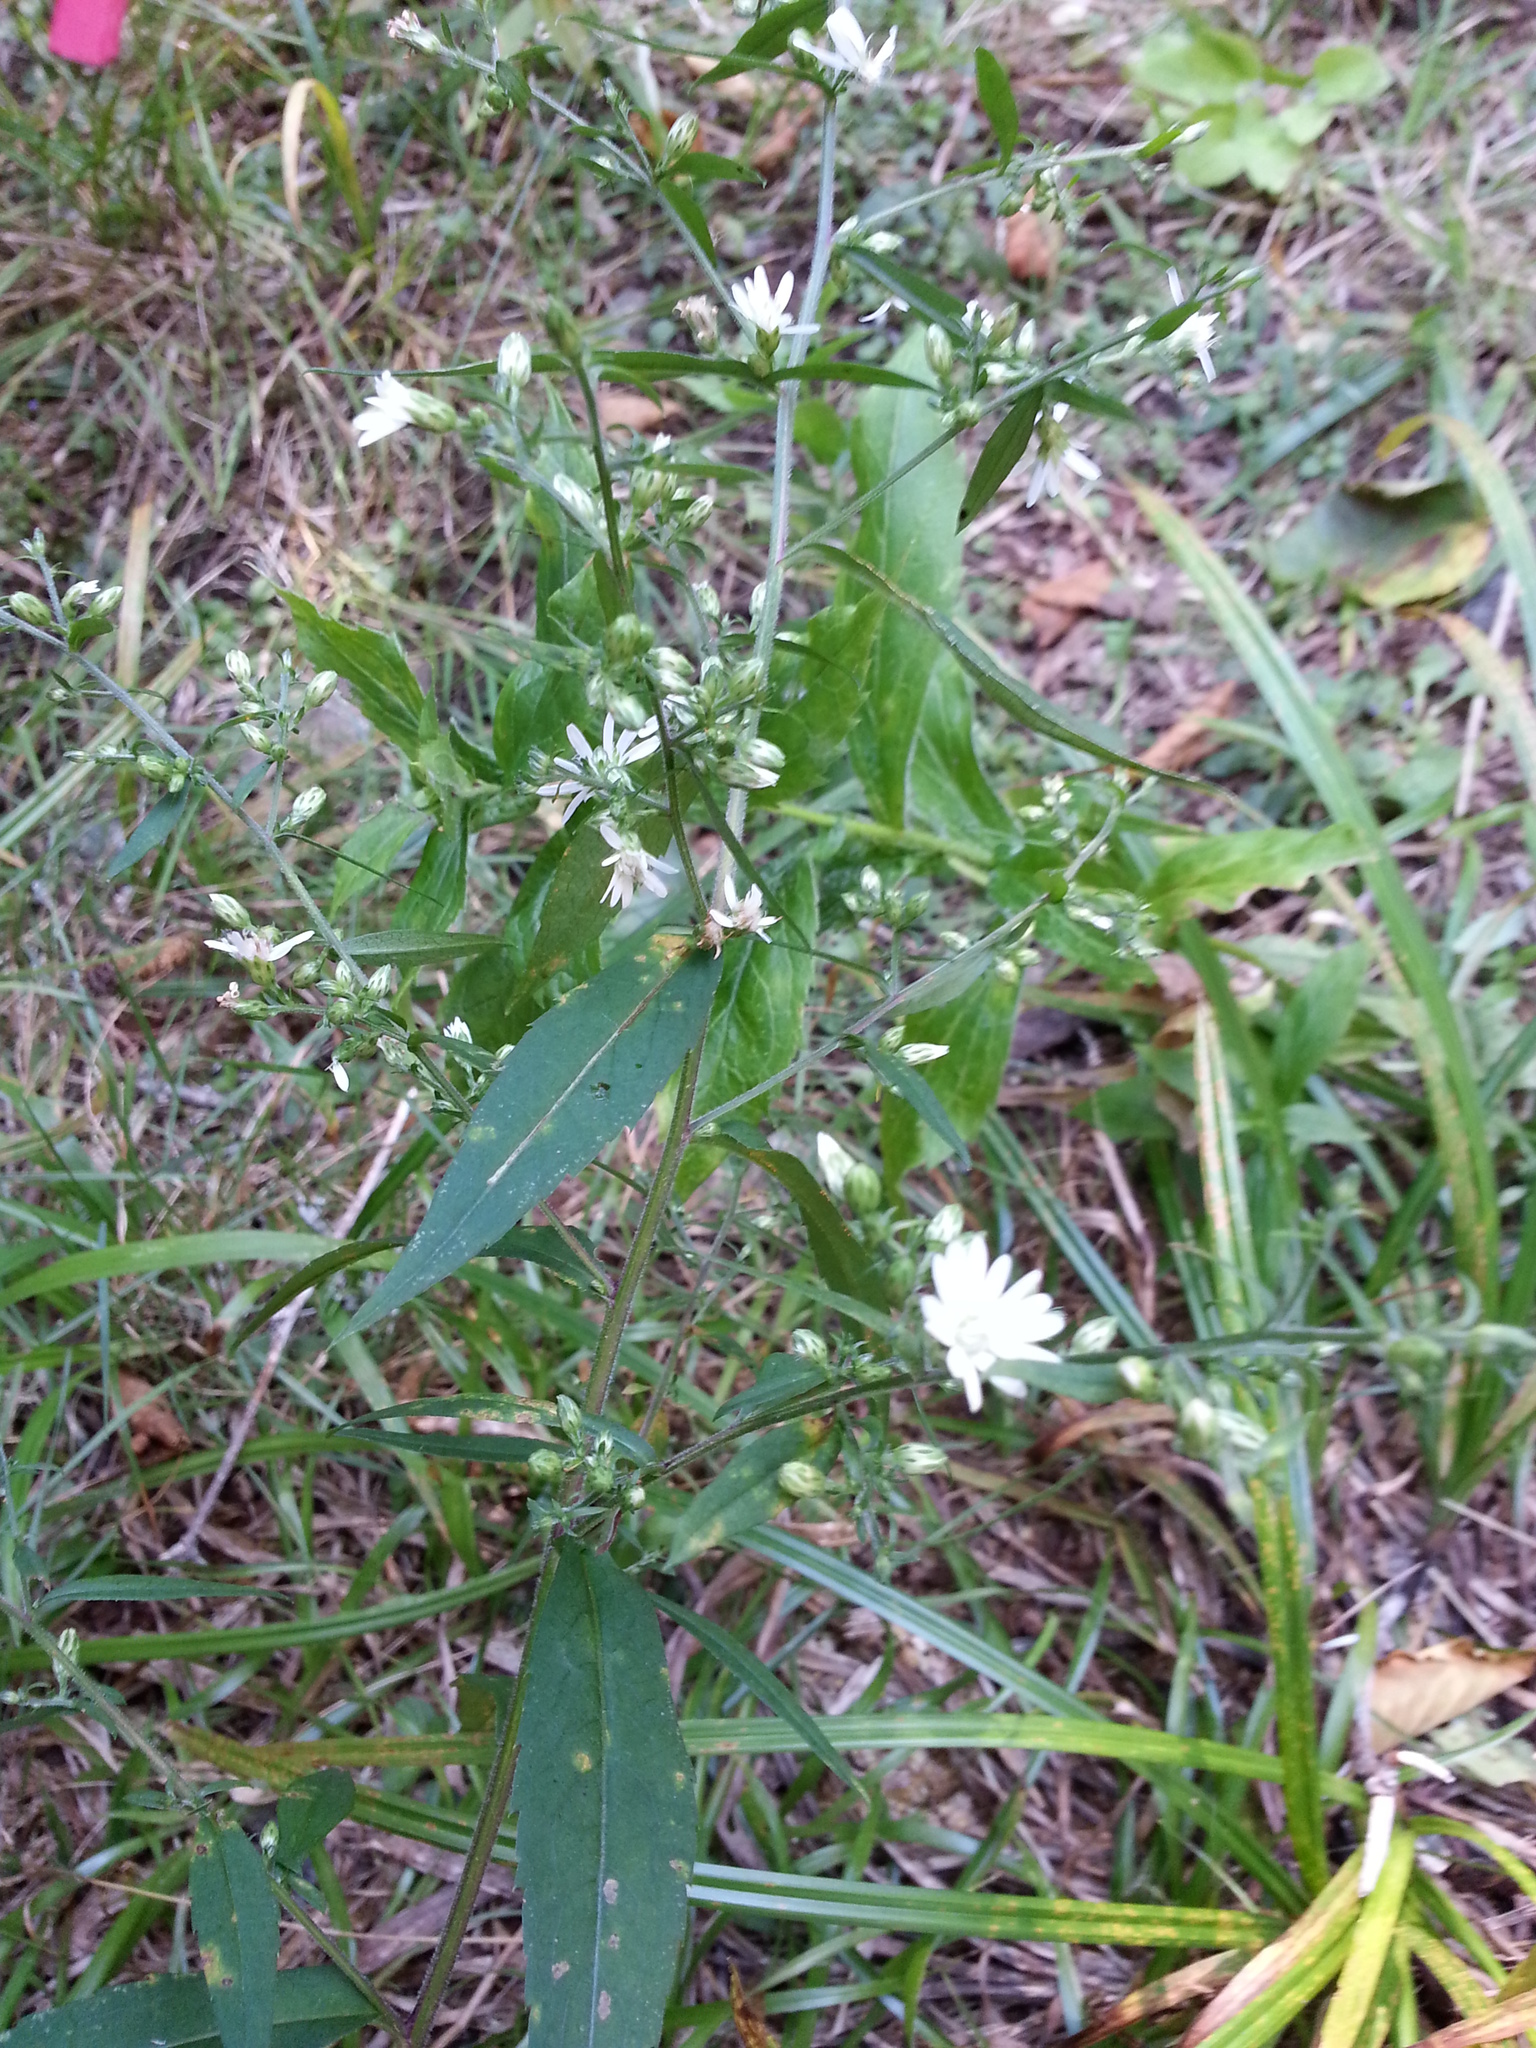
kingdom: Plantae
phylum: Tracheophyta
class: Magnoliopsida
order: Asterales
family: Asteraceae
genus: Symphyotrichum
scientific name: Symphyotrichum lateriflorum
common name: Calico aster
